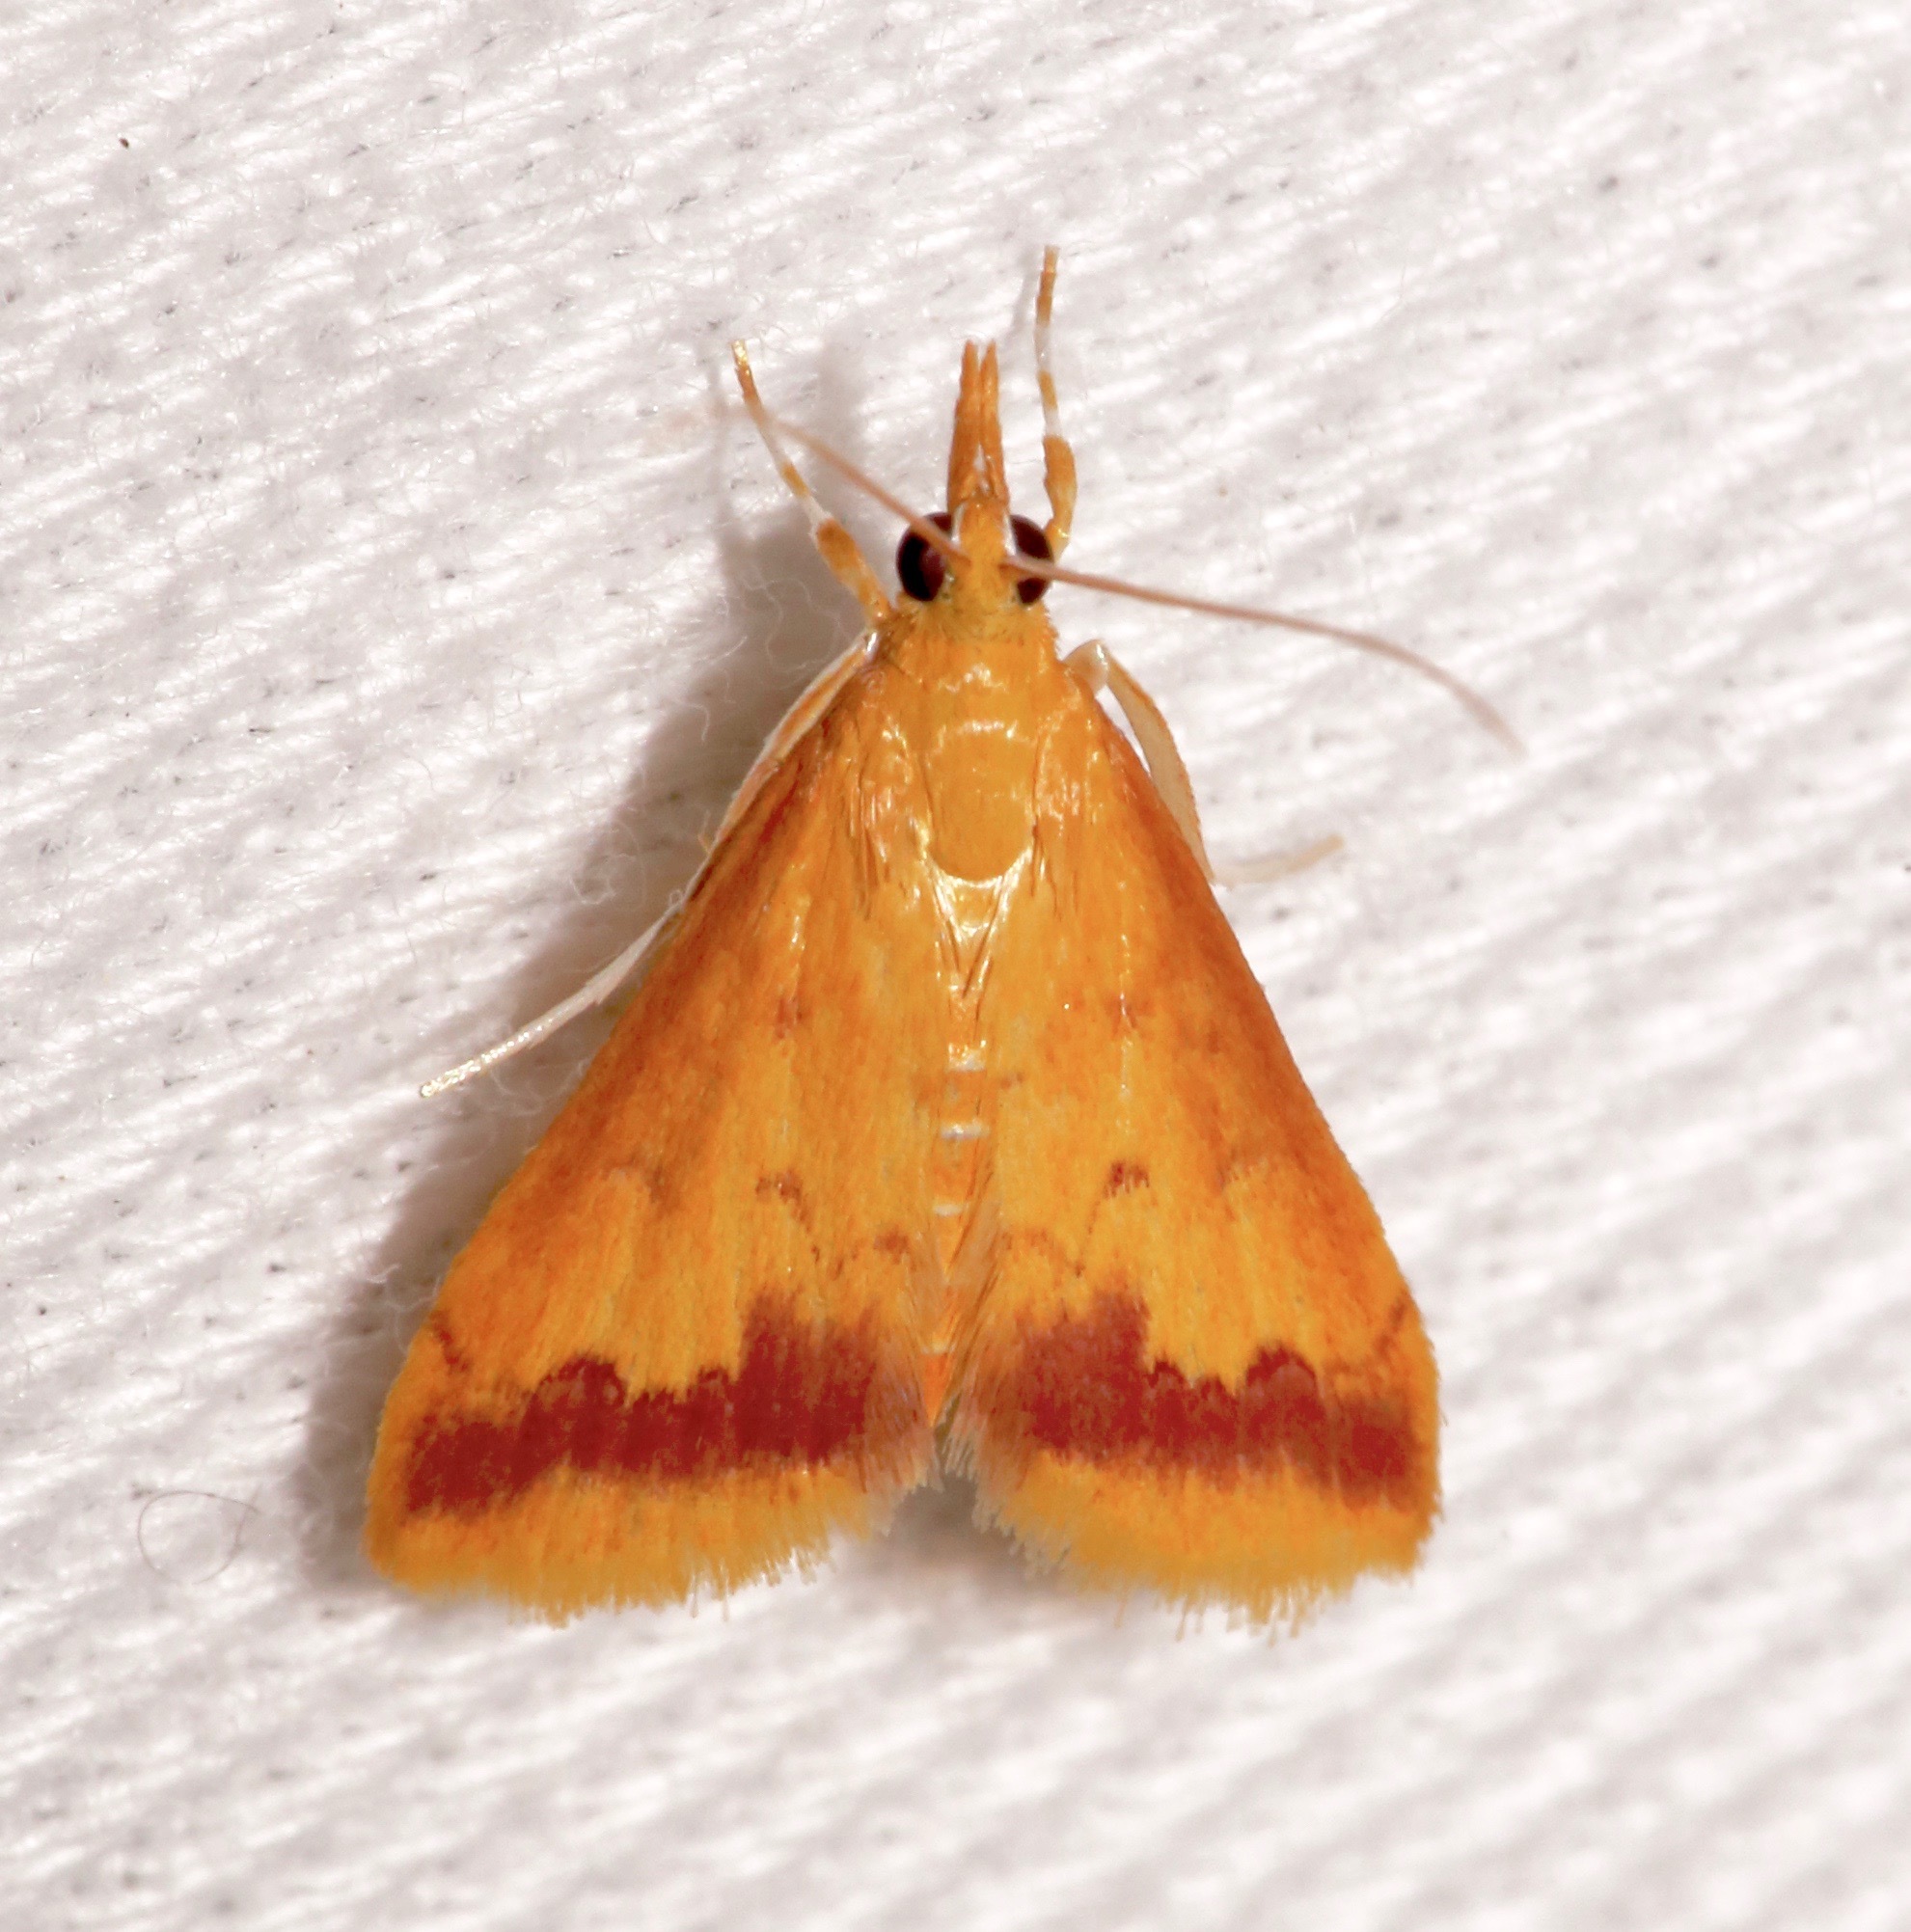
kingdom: Animalia
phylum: Arthropoda
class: Insecta
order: Lepidoptera
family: Crambidae
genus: Hyalorista
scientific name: Hyalorista taeniolalis
